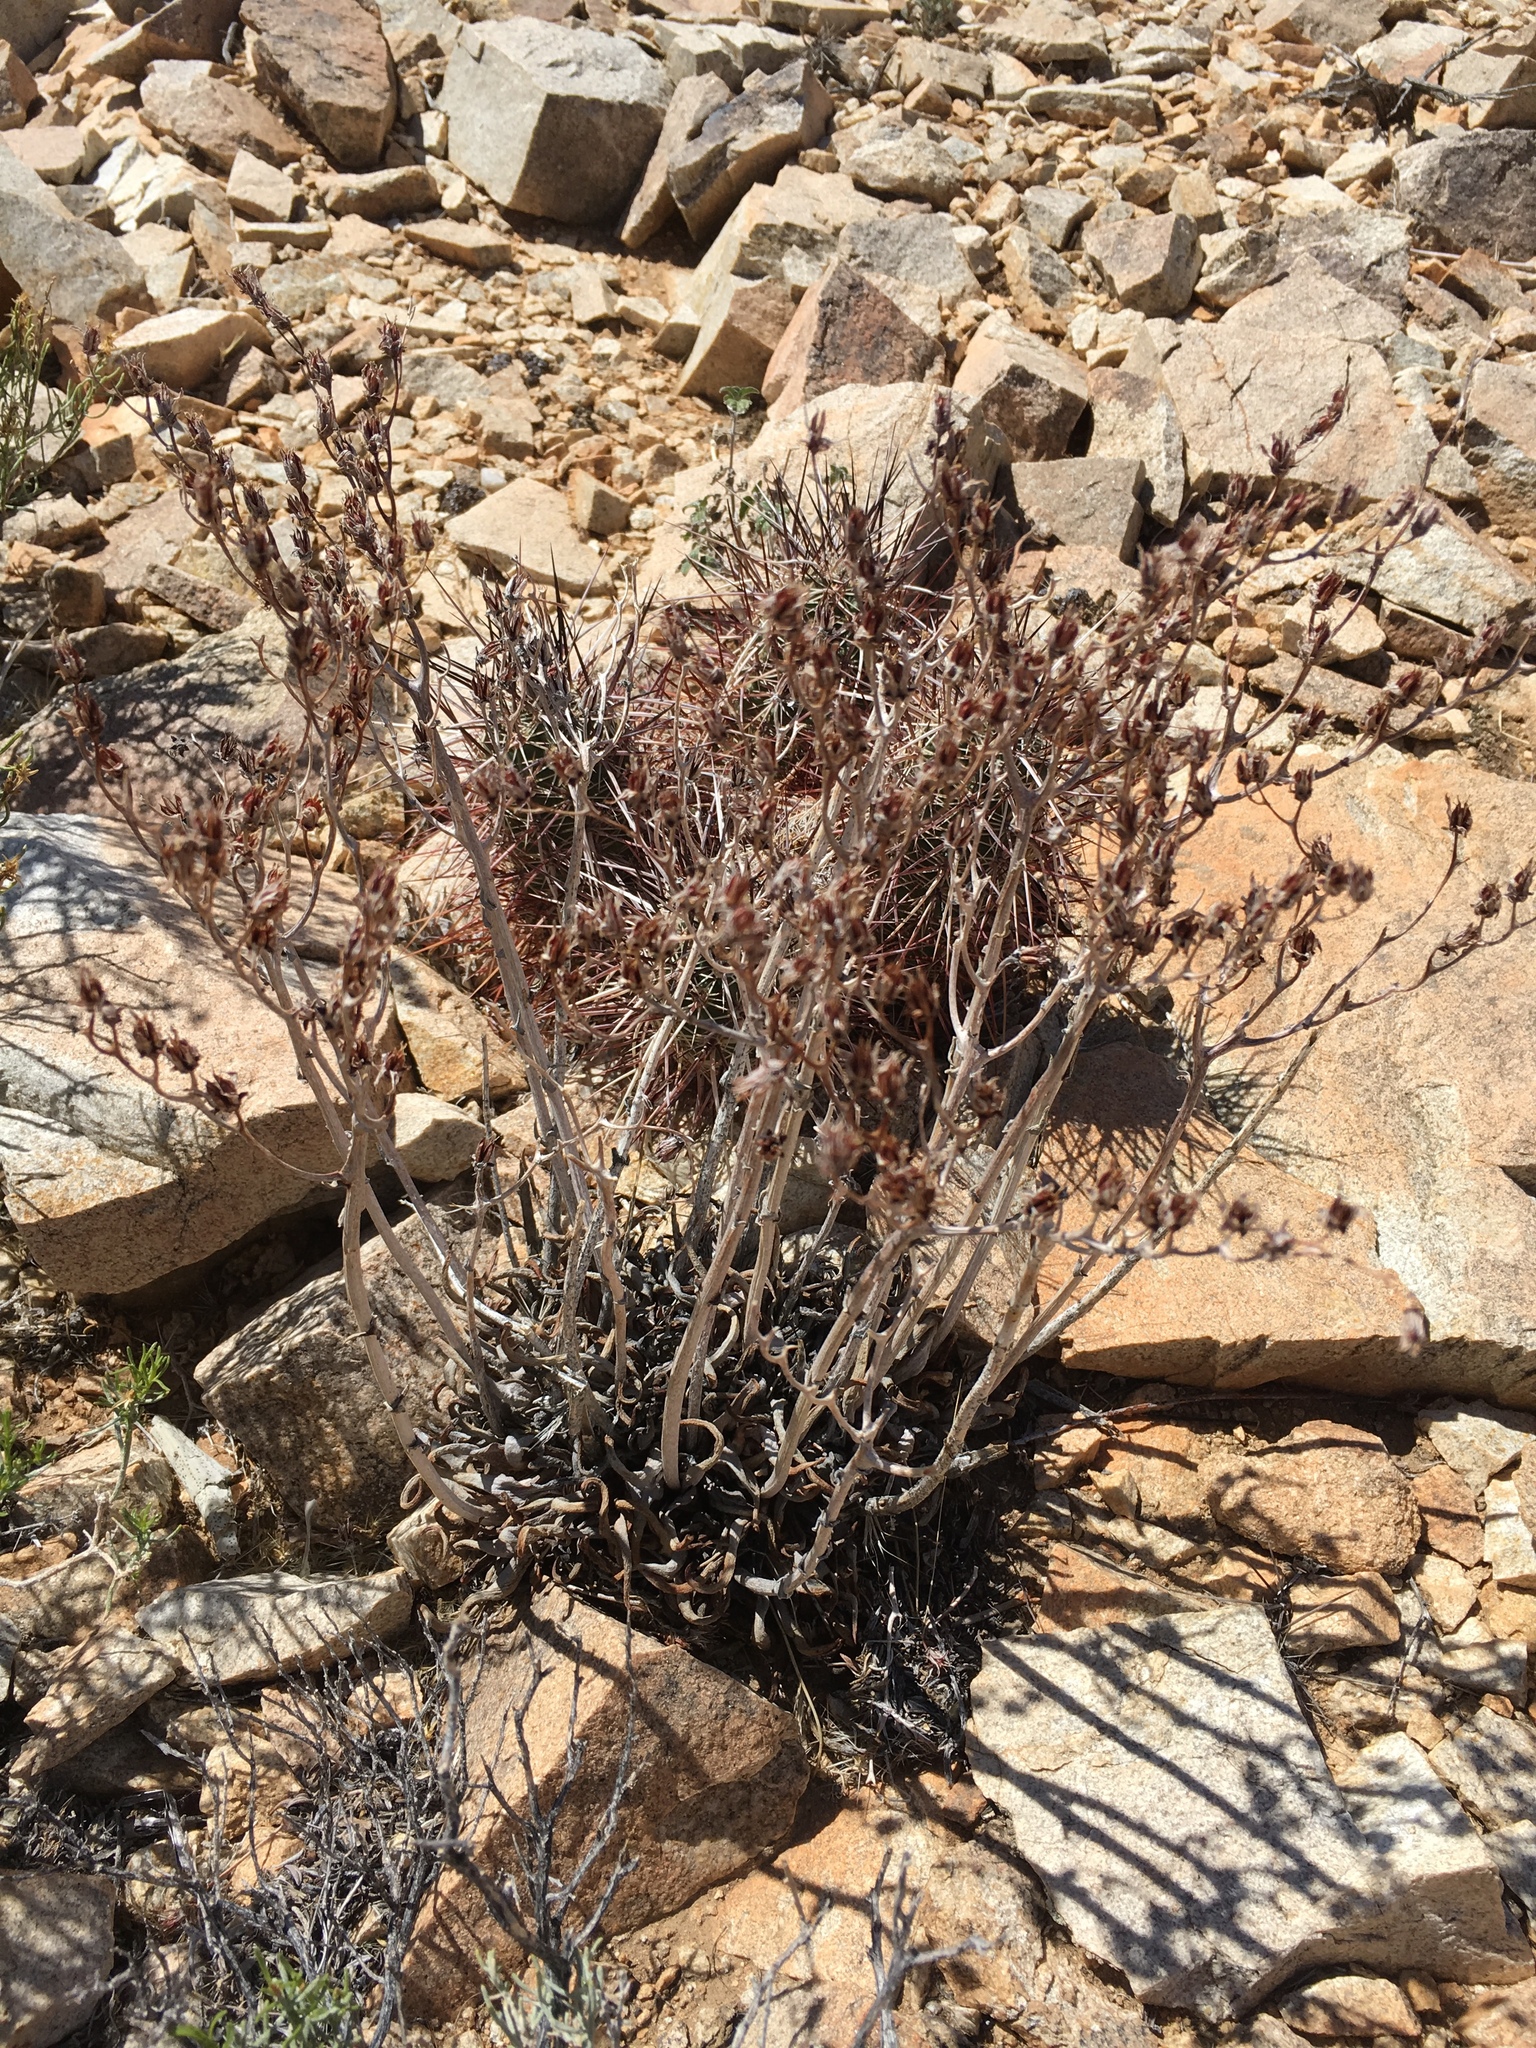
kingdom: Plantae
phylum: Tracheophyta
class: Magnoliopsida
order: Saxifragales
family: Crassulaceae
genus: Dudleya
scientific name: Dudleya saxosa
